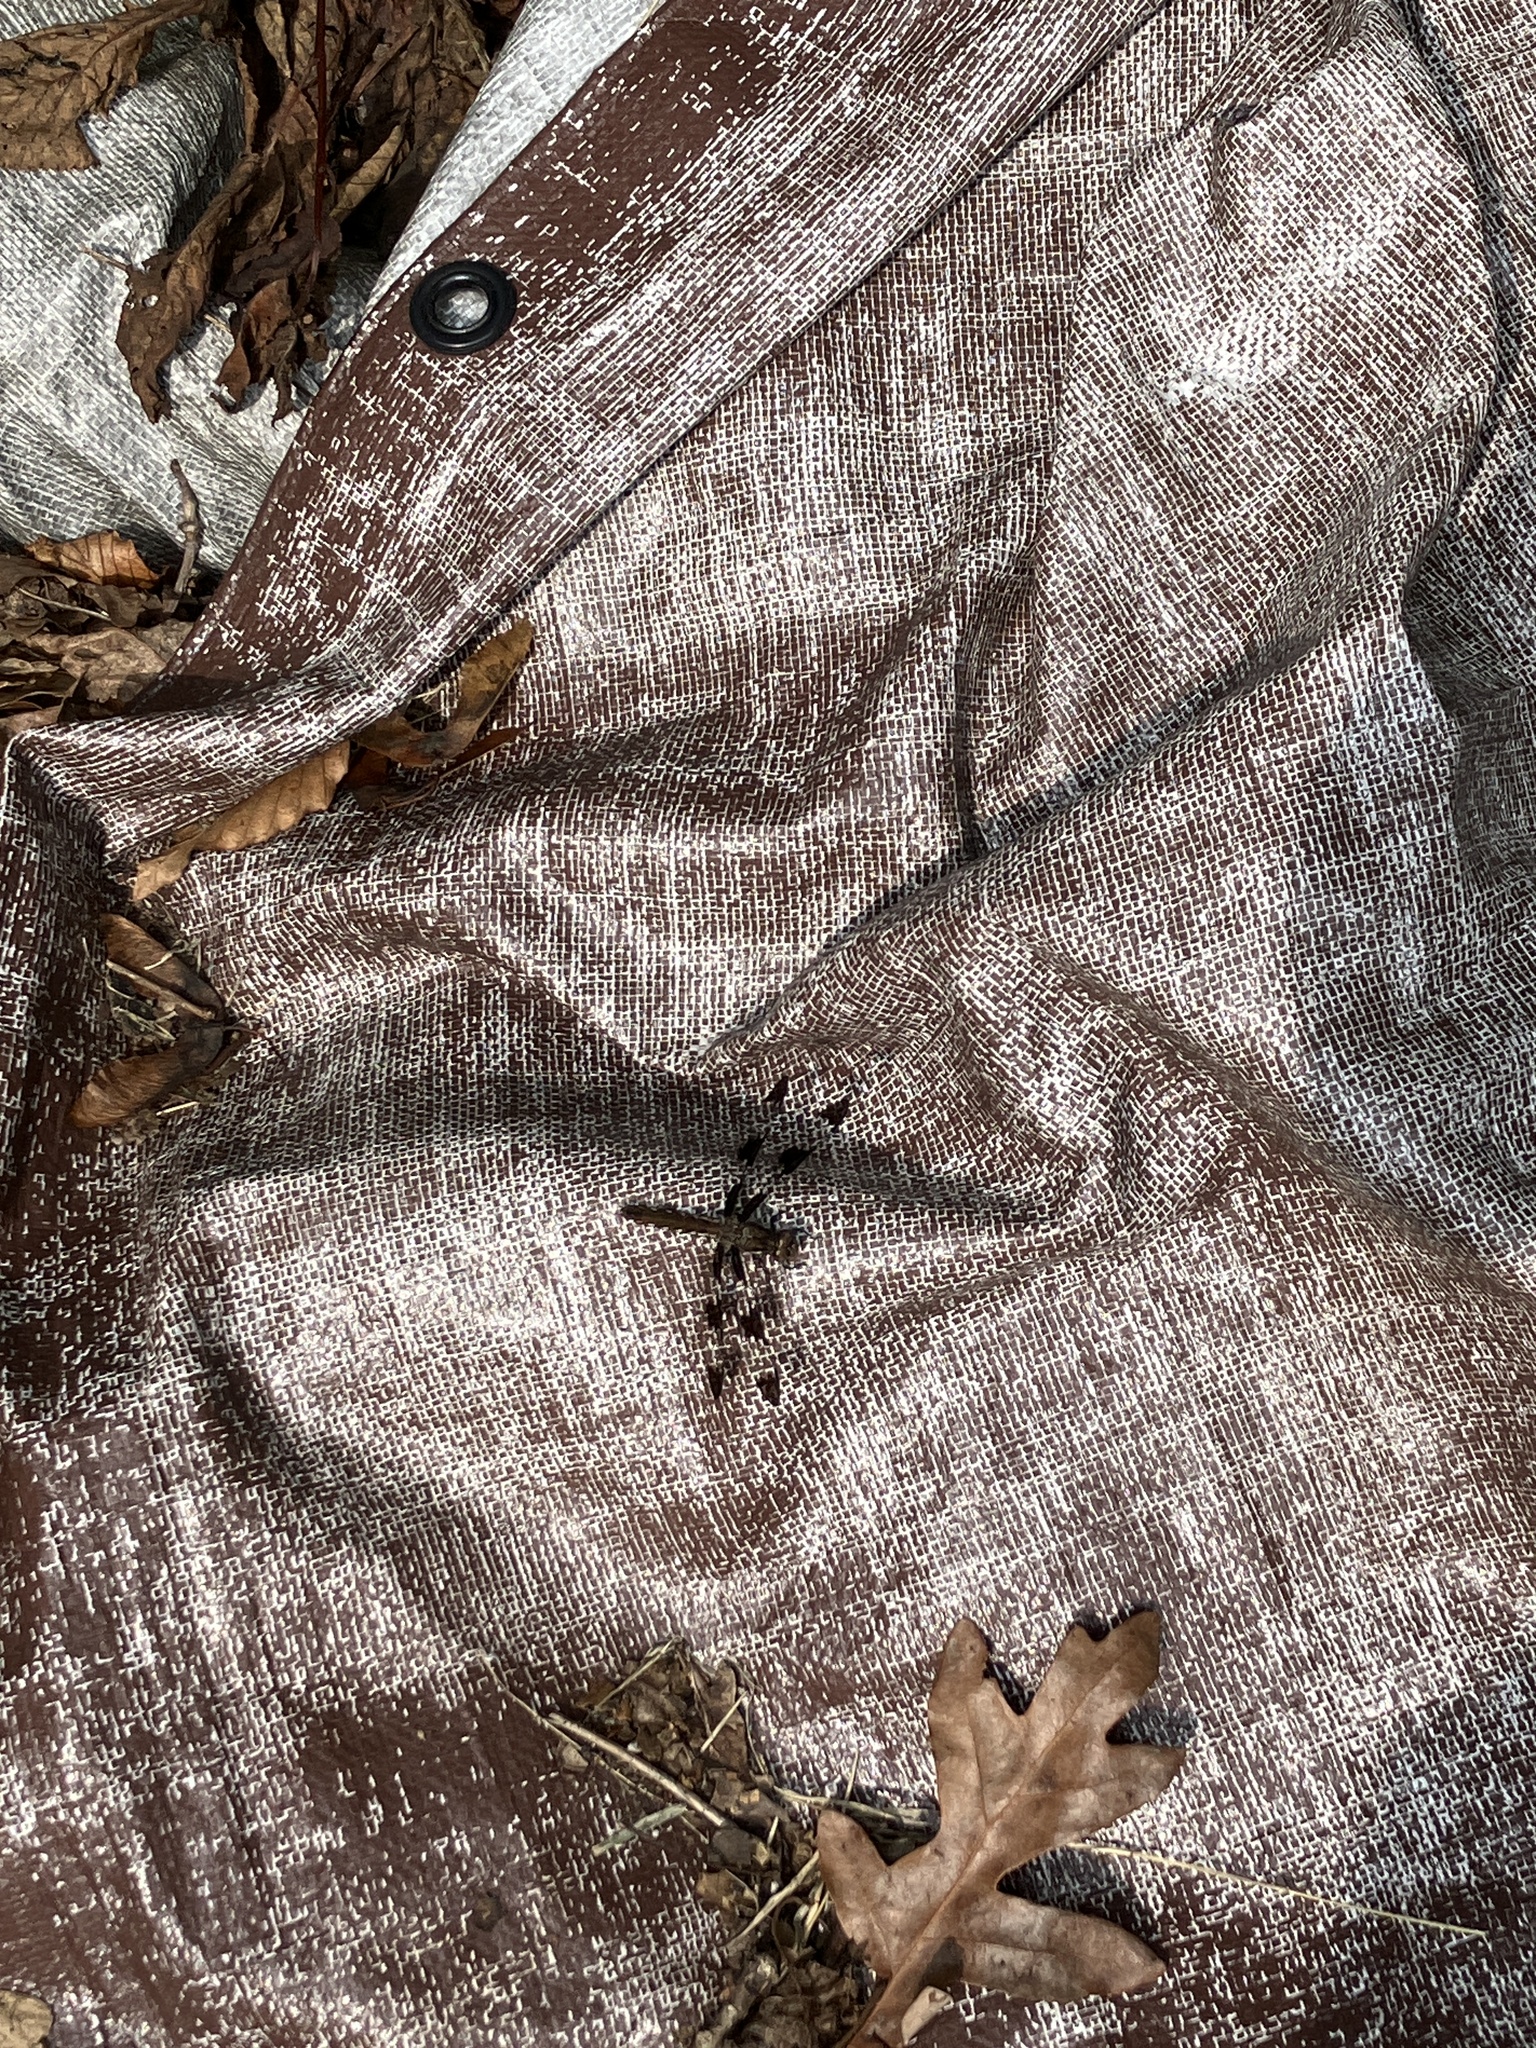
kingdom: Animalia
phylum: Arthropoda
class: Insecta
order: Odonata
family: Libellulidae
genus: Plathemis
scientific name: Plathemis lydia
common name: Common whitetail
